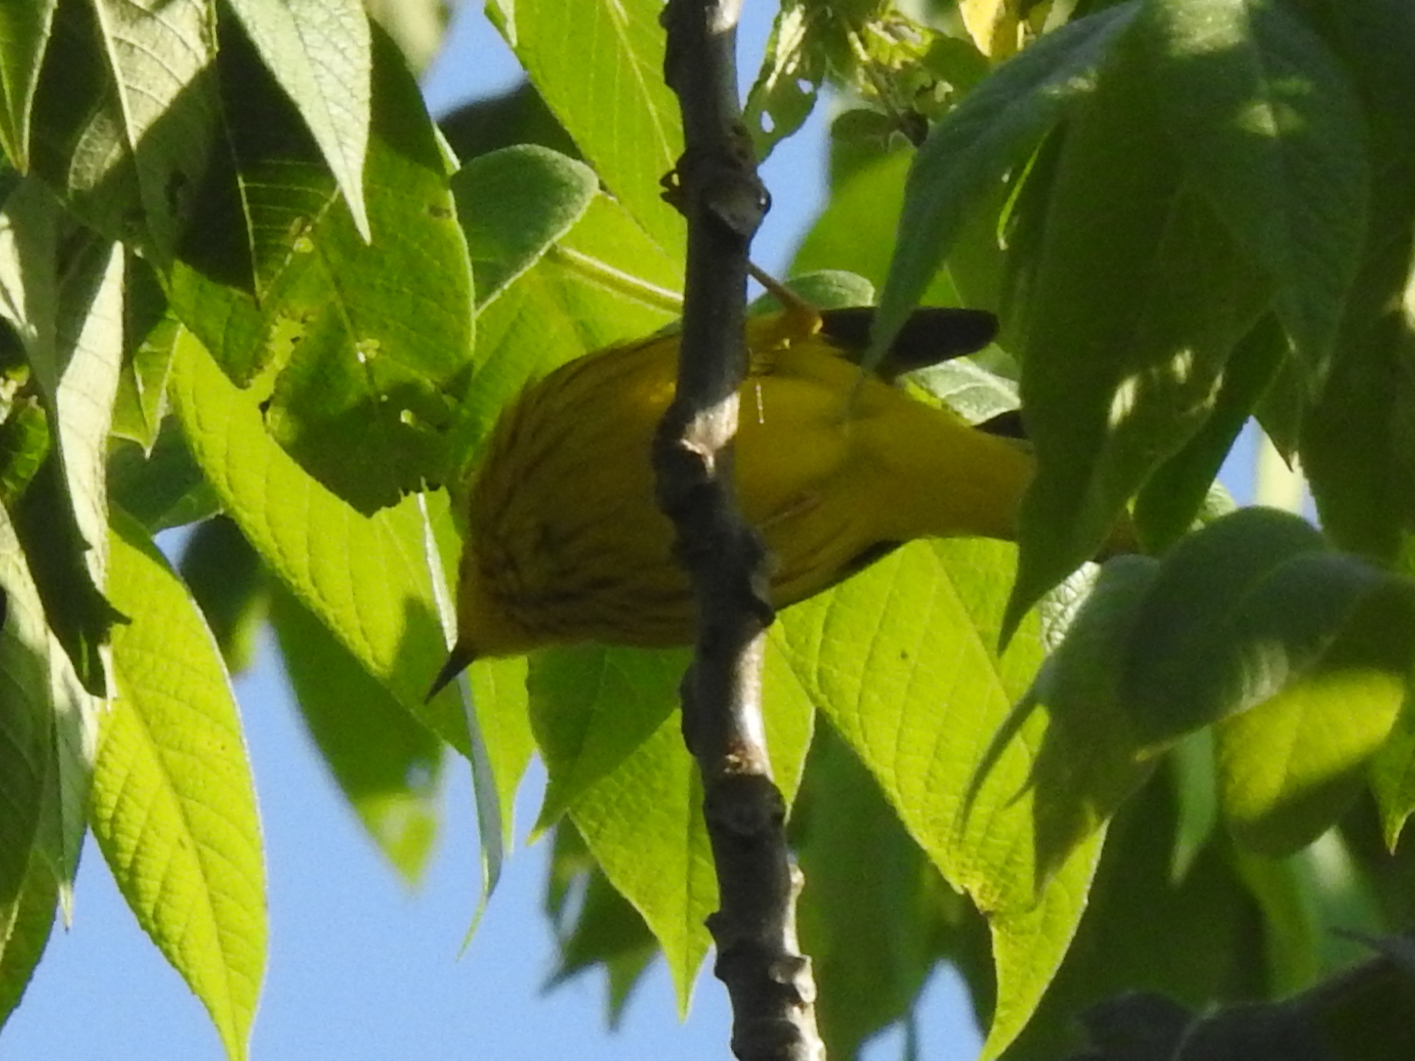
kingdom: Animalia
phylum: Chordata
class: Aves
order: Passeriformes
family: Parulidae
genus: Setophaga
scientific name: Setophaga petechia
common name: Yellow warbler
